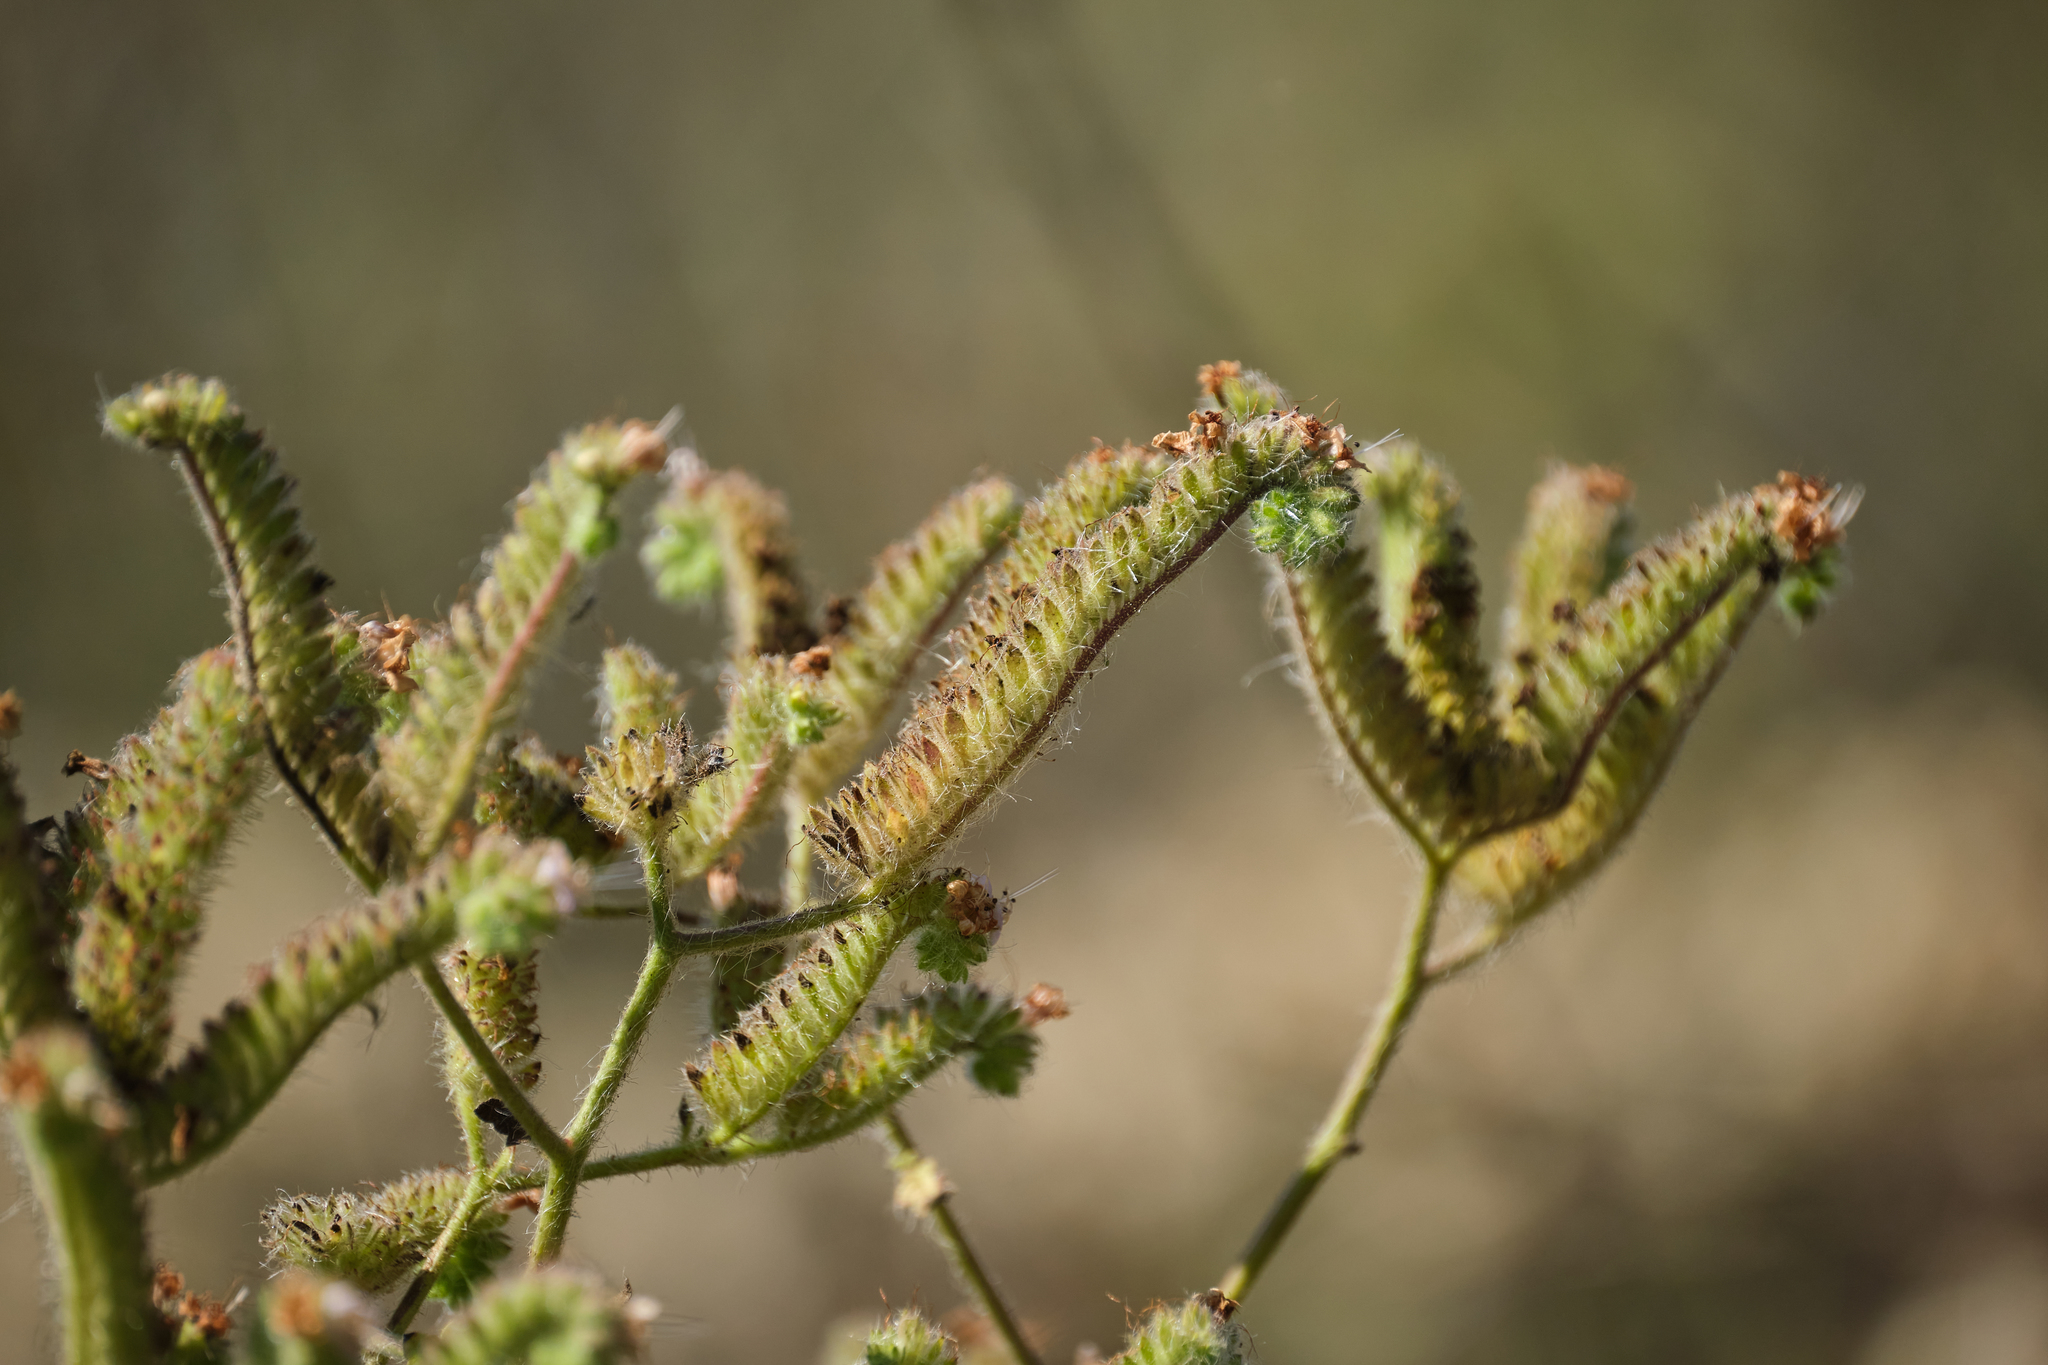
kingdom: Plantae
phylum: Tracheophyta
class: Magnoliopsida
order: Boraginales
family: Hydrophyllaceae
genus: Phacelia
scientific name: Phacelia ramosissima
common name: Branching phacelia
